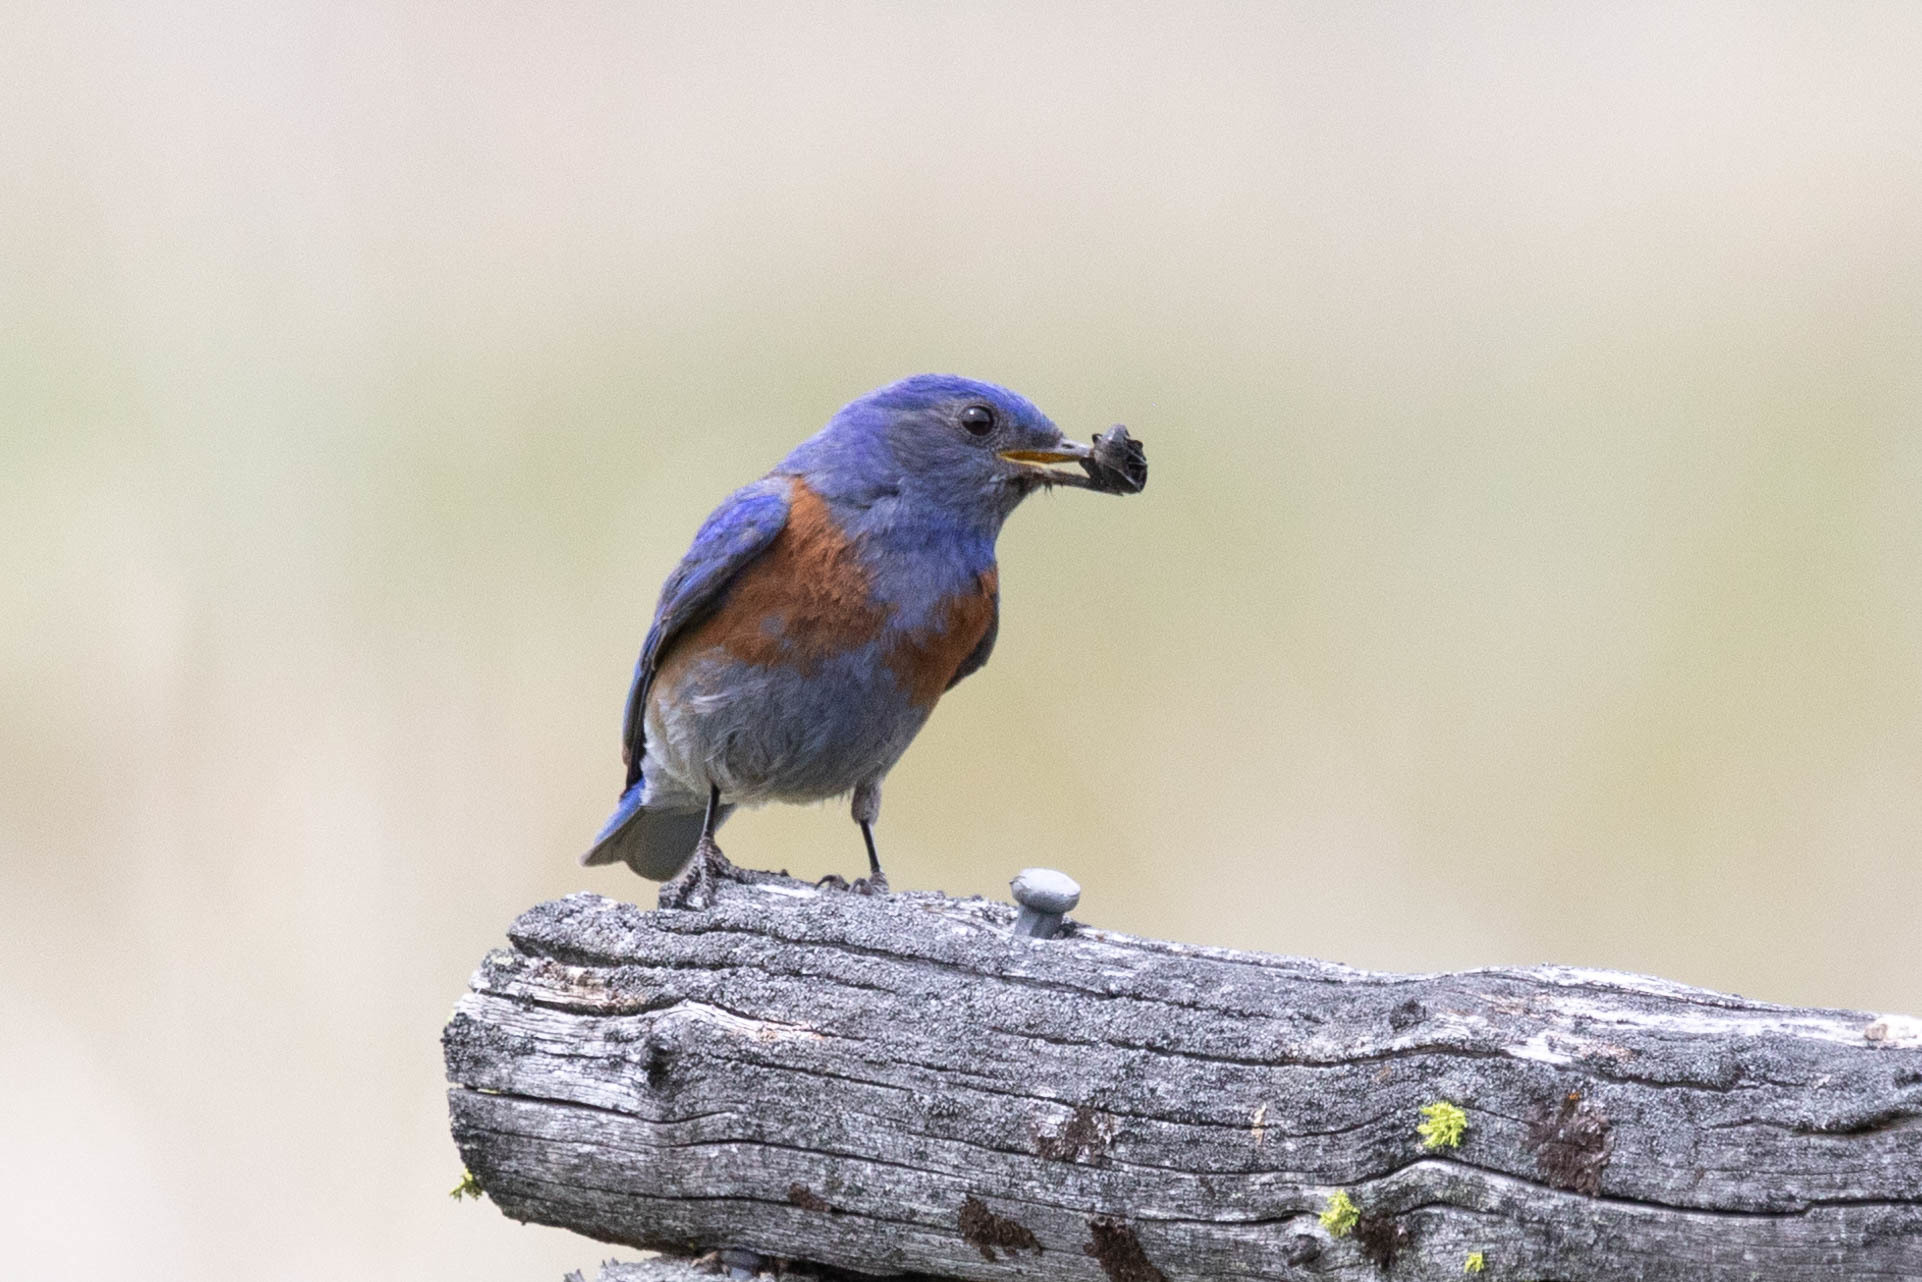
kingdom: Animalia
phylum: Chordata
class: Aves
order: Passeriformes
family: Turdidae
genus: Sialia
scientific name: Sialia mexicana
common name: Western bluebird
